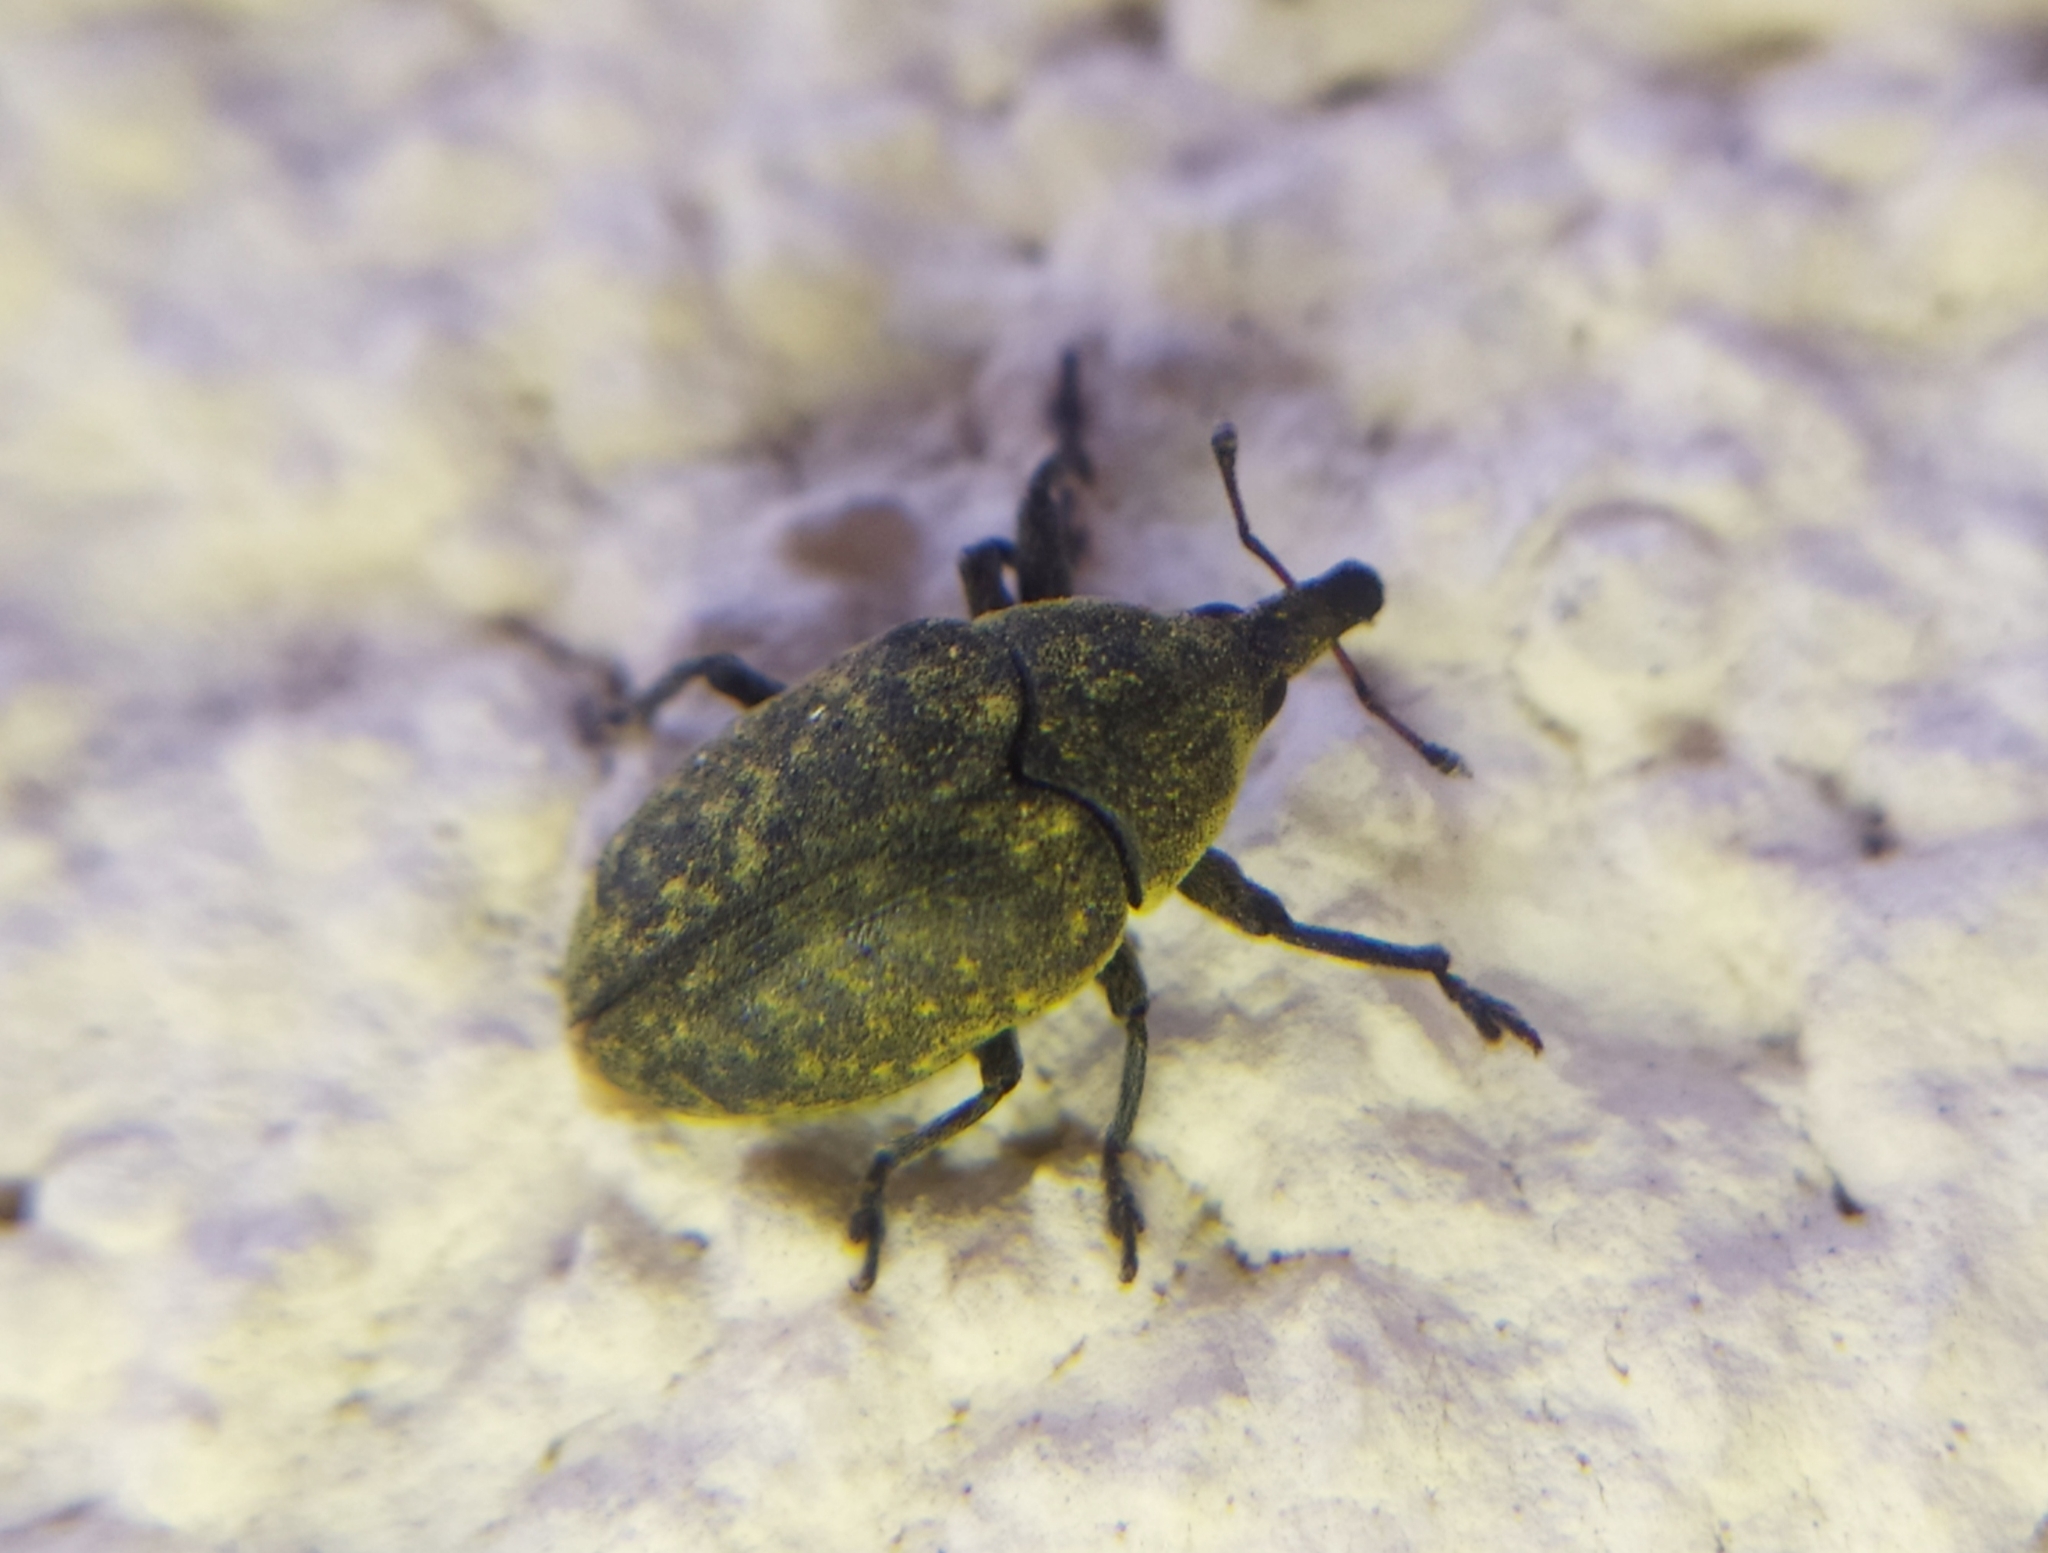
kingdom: Animalia
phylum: Arthropoda
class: Insecta
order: Coleoptera
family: Curculionidae
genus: Larinus
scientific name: Larinus turbinatus
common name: Weevil
